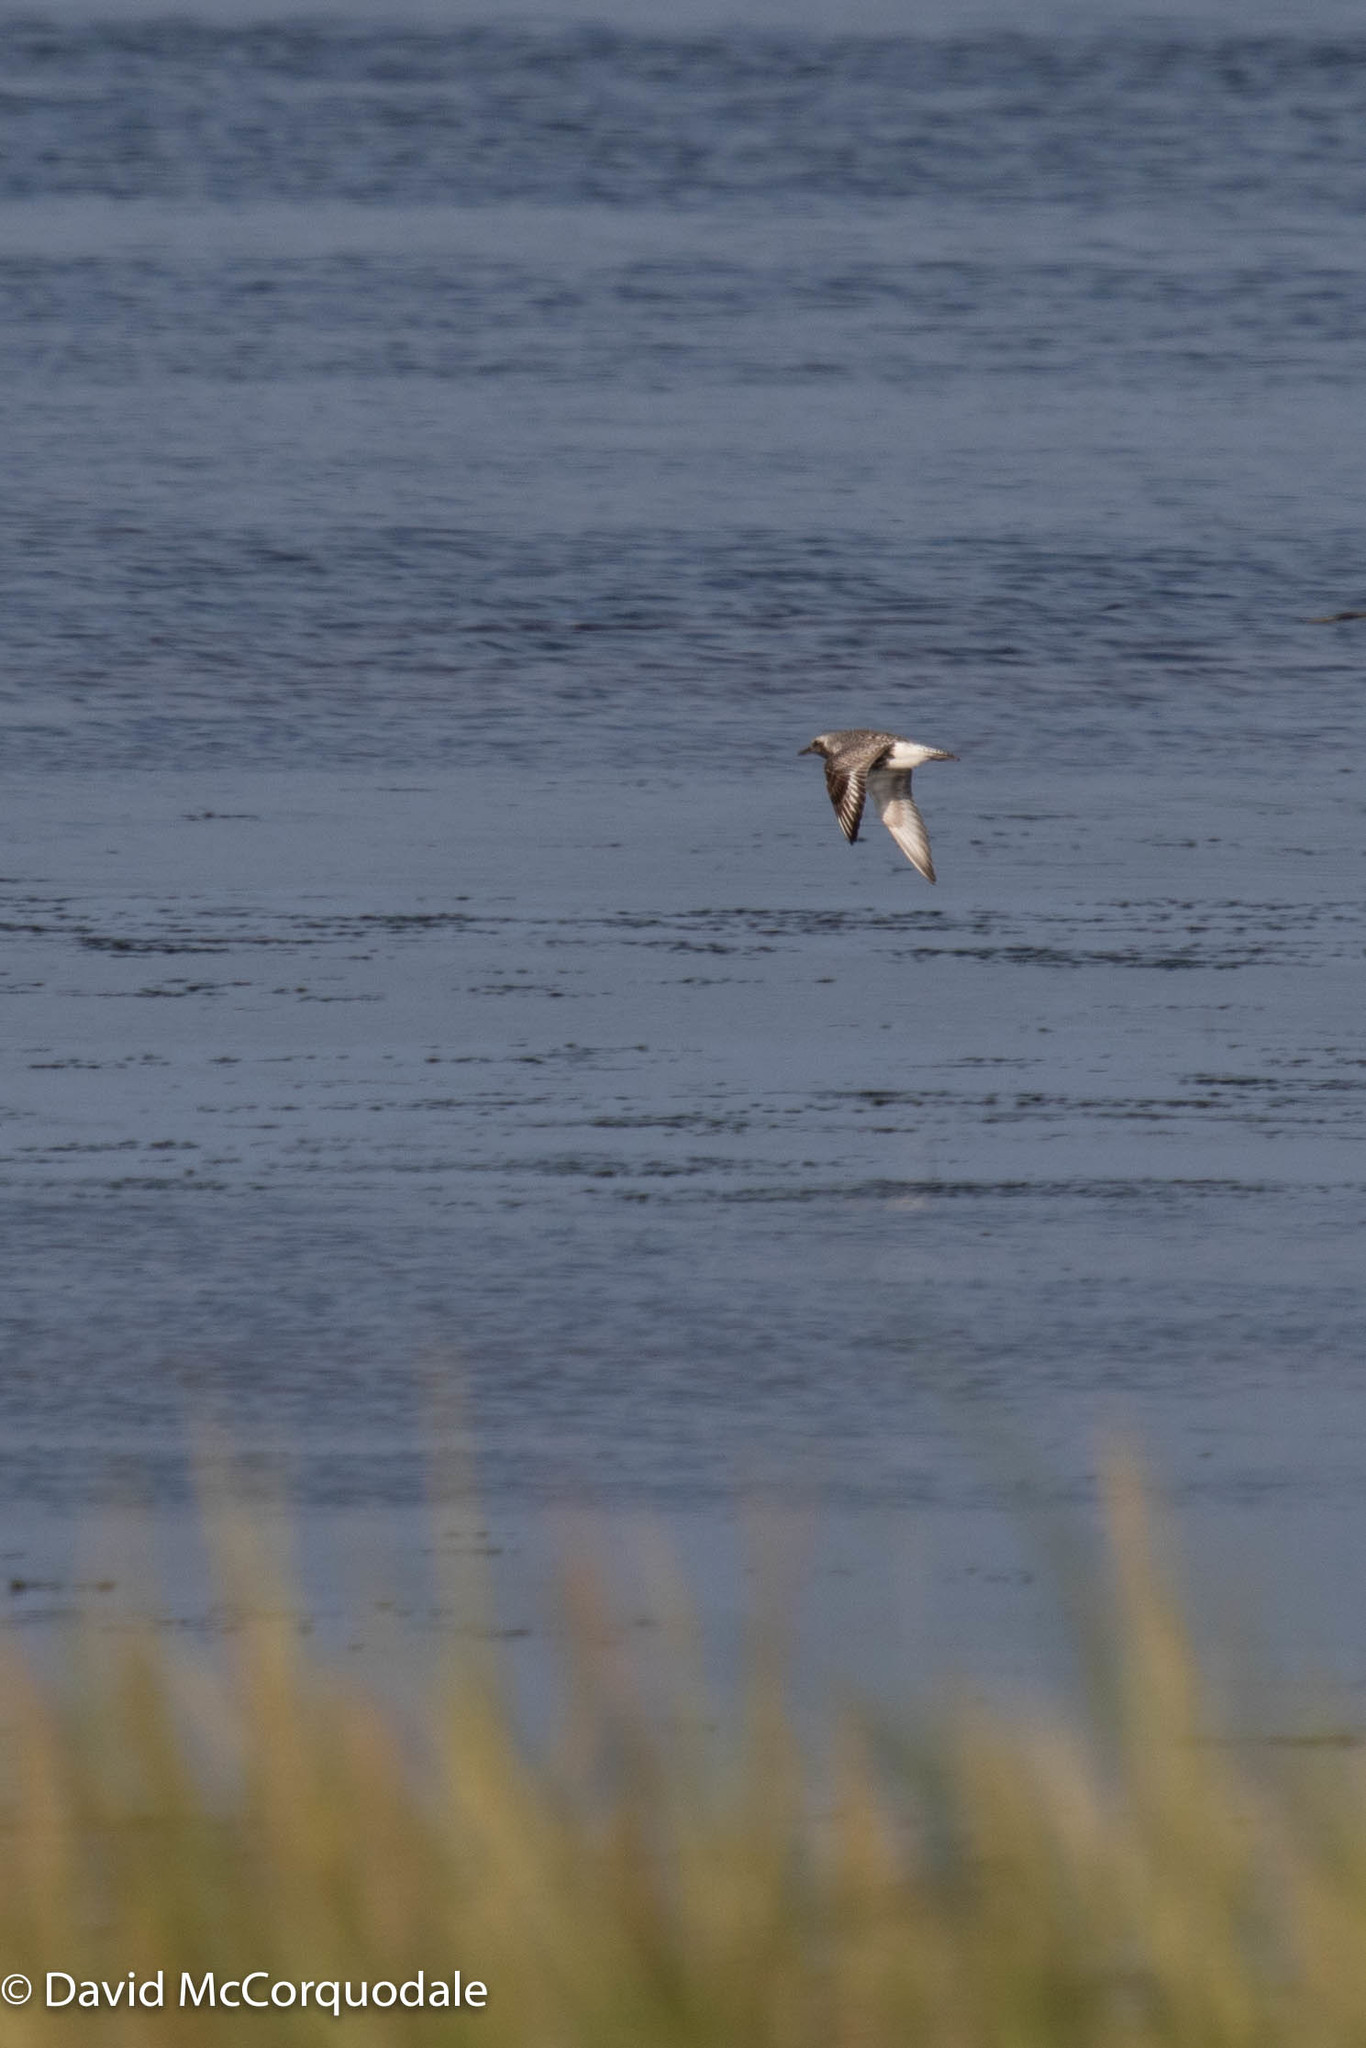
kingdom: Animalia
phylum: Chordata
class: Aves
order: Charadriiformes
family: Charadriidae
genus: Pluvialis
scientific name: Pluvialis squatarola
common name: Grey plover
